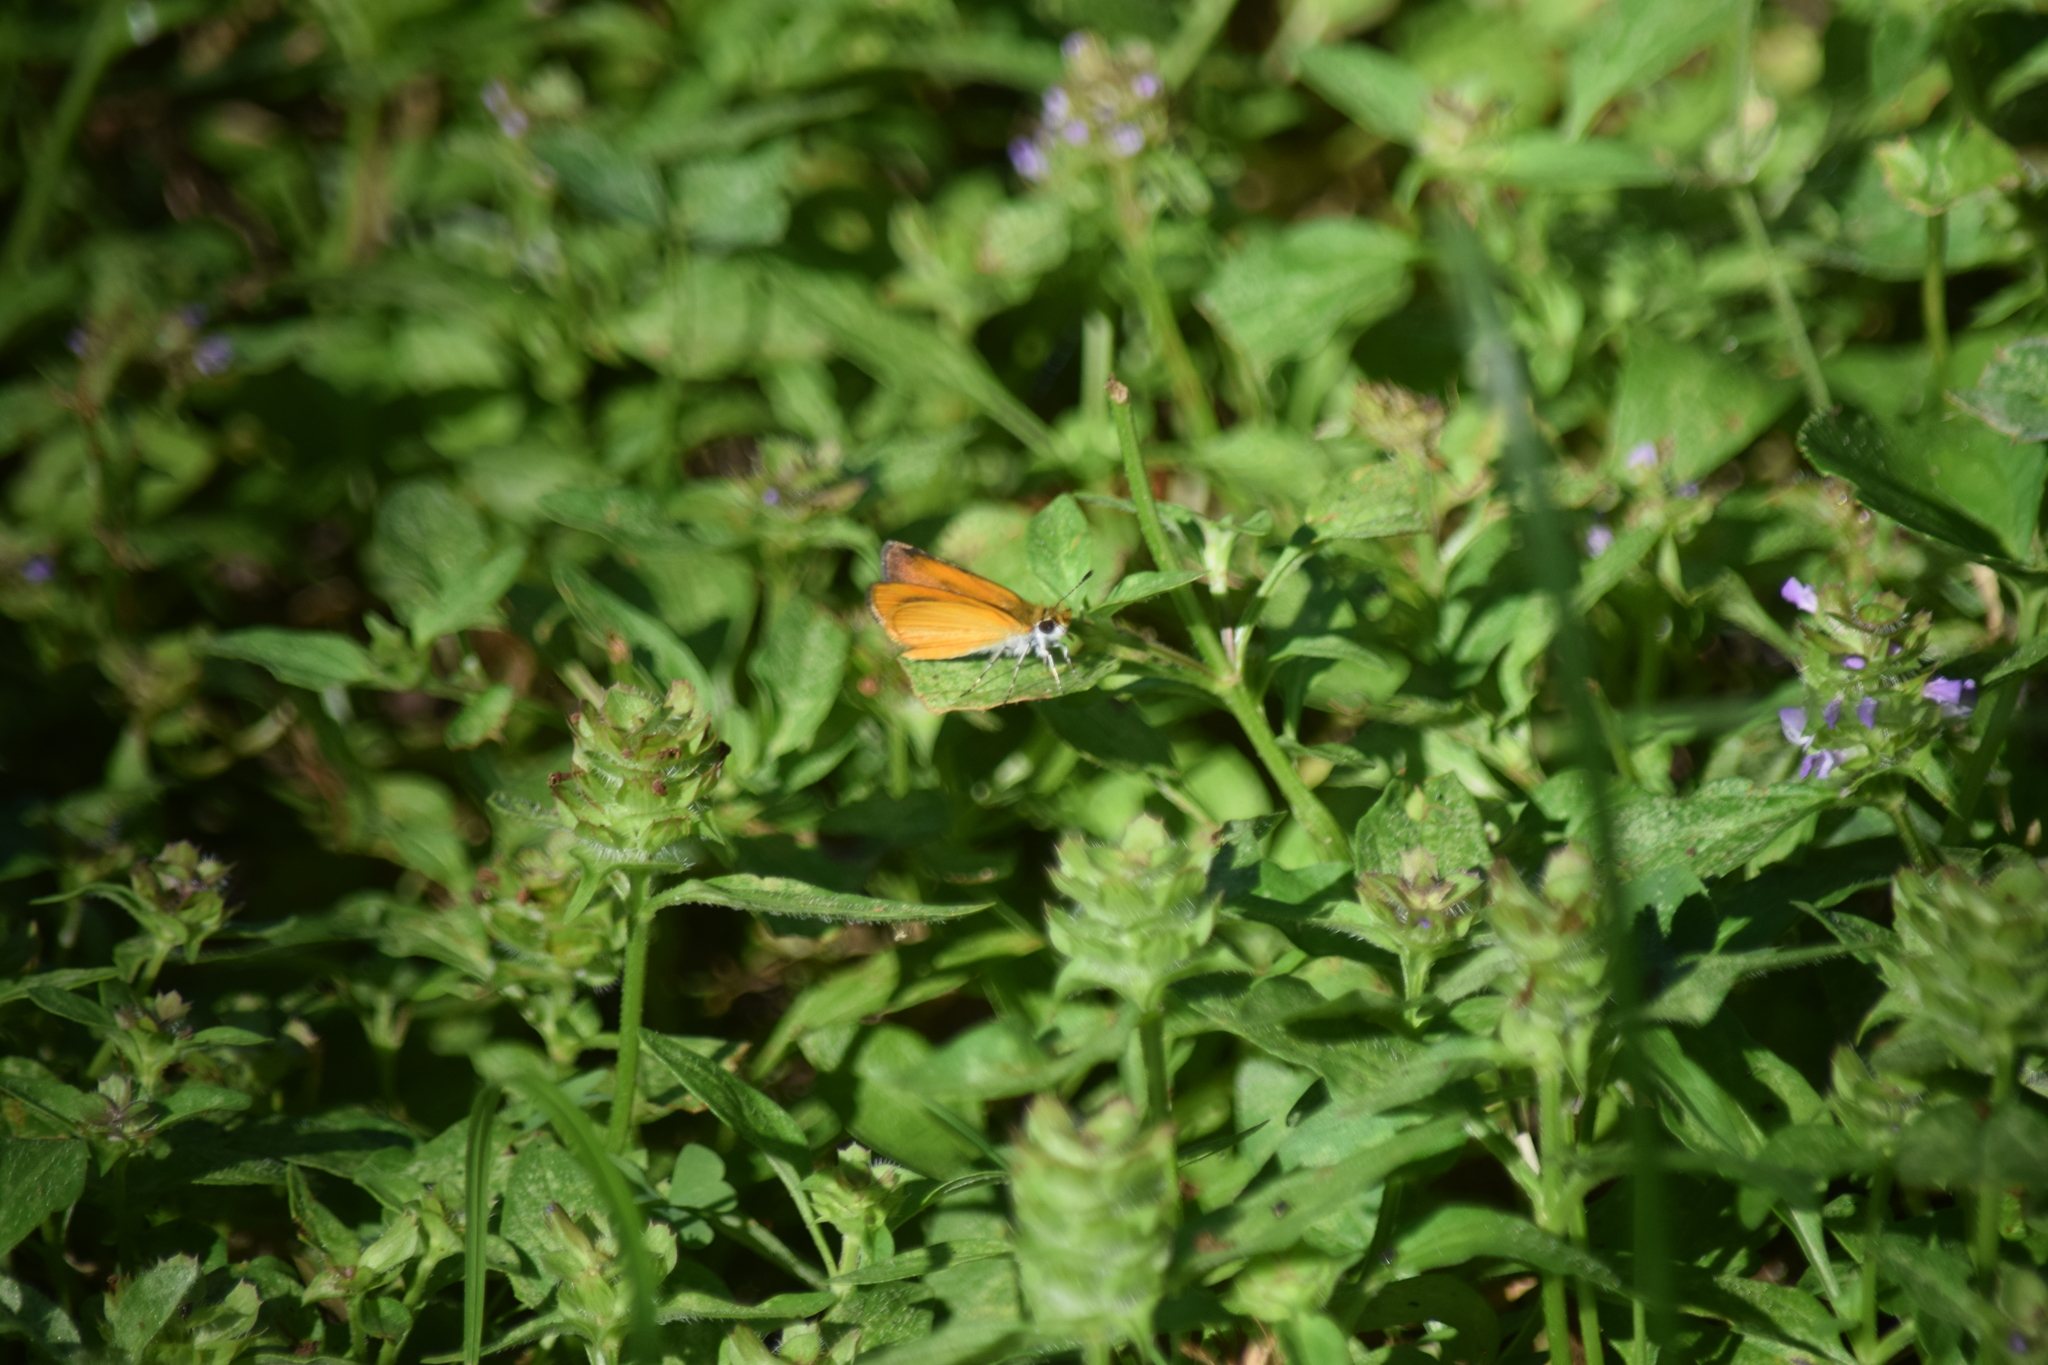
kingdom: Animalia
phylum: Arthropoda
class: Insecta
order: Lepidoptera
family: Hesperiidae
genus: Ancyloxypha
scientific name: Ancyloxypha numitor
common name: Least skipper
